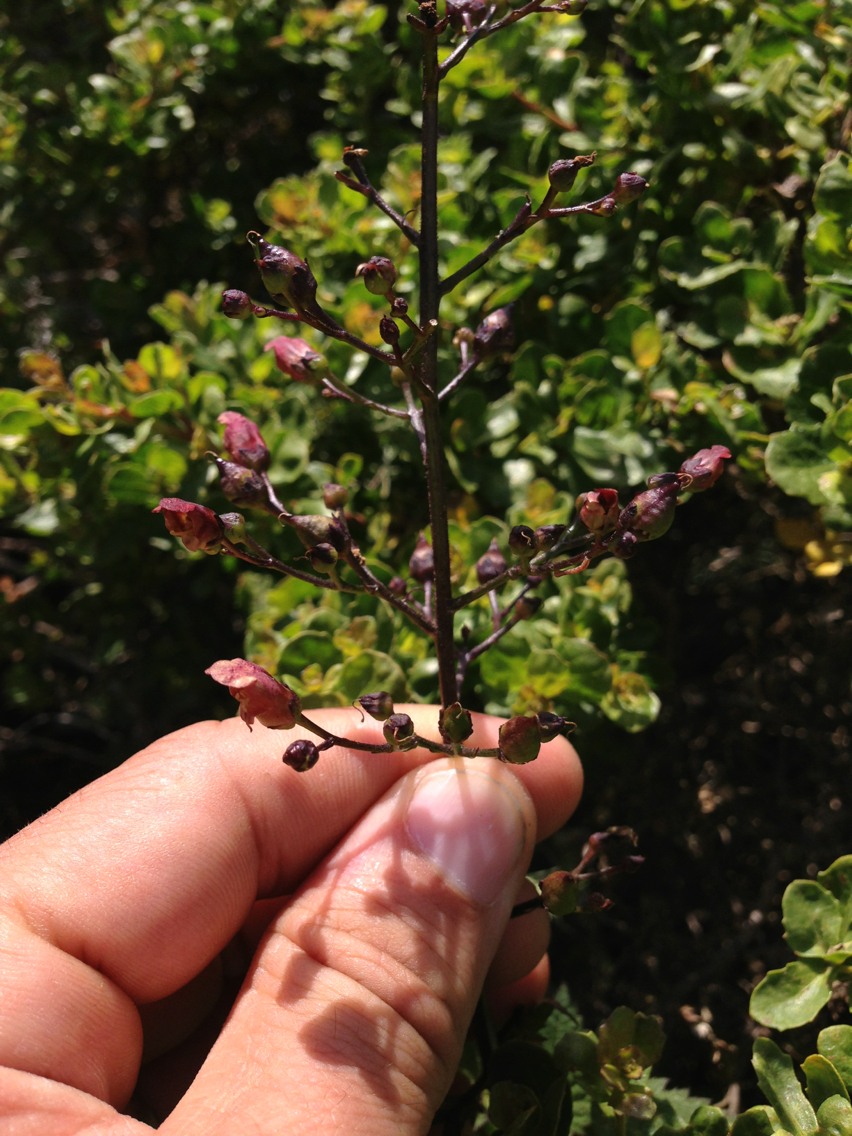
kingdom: Plantae
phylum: Tracheophyta
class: Magnoliopsida
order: Lamiales
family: Scrophulariaceae
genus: Scrophularia
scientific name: Scrophularia californica
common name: California figwort
